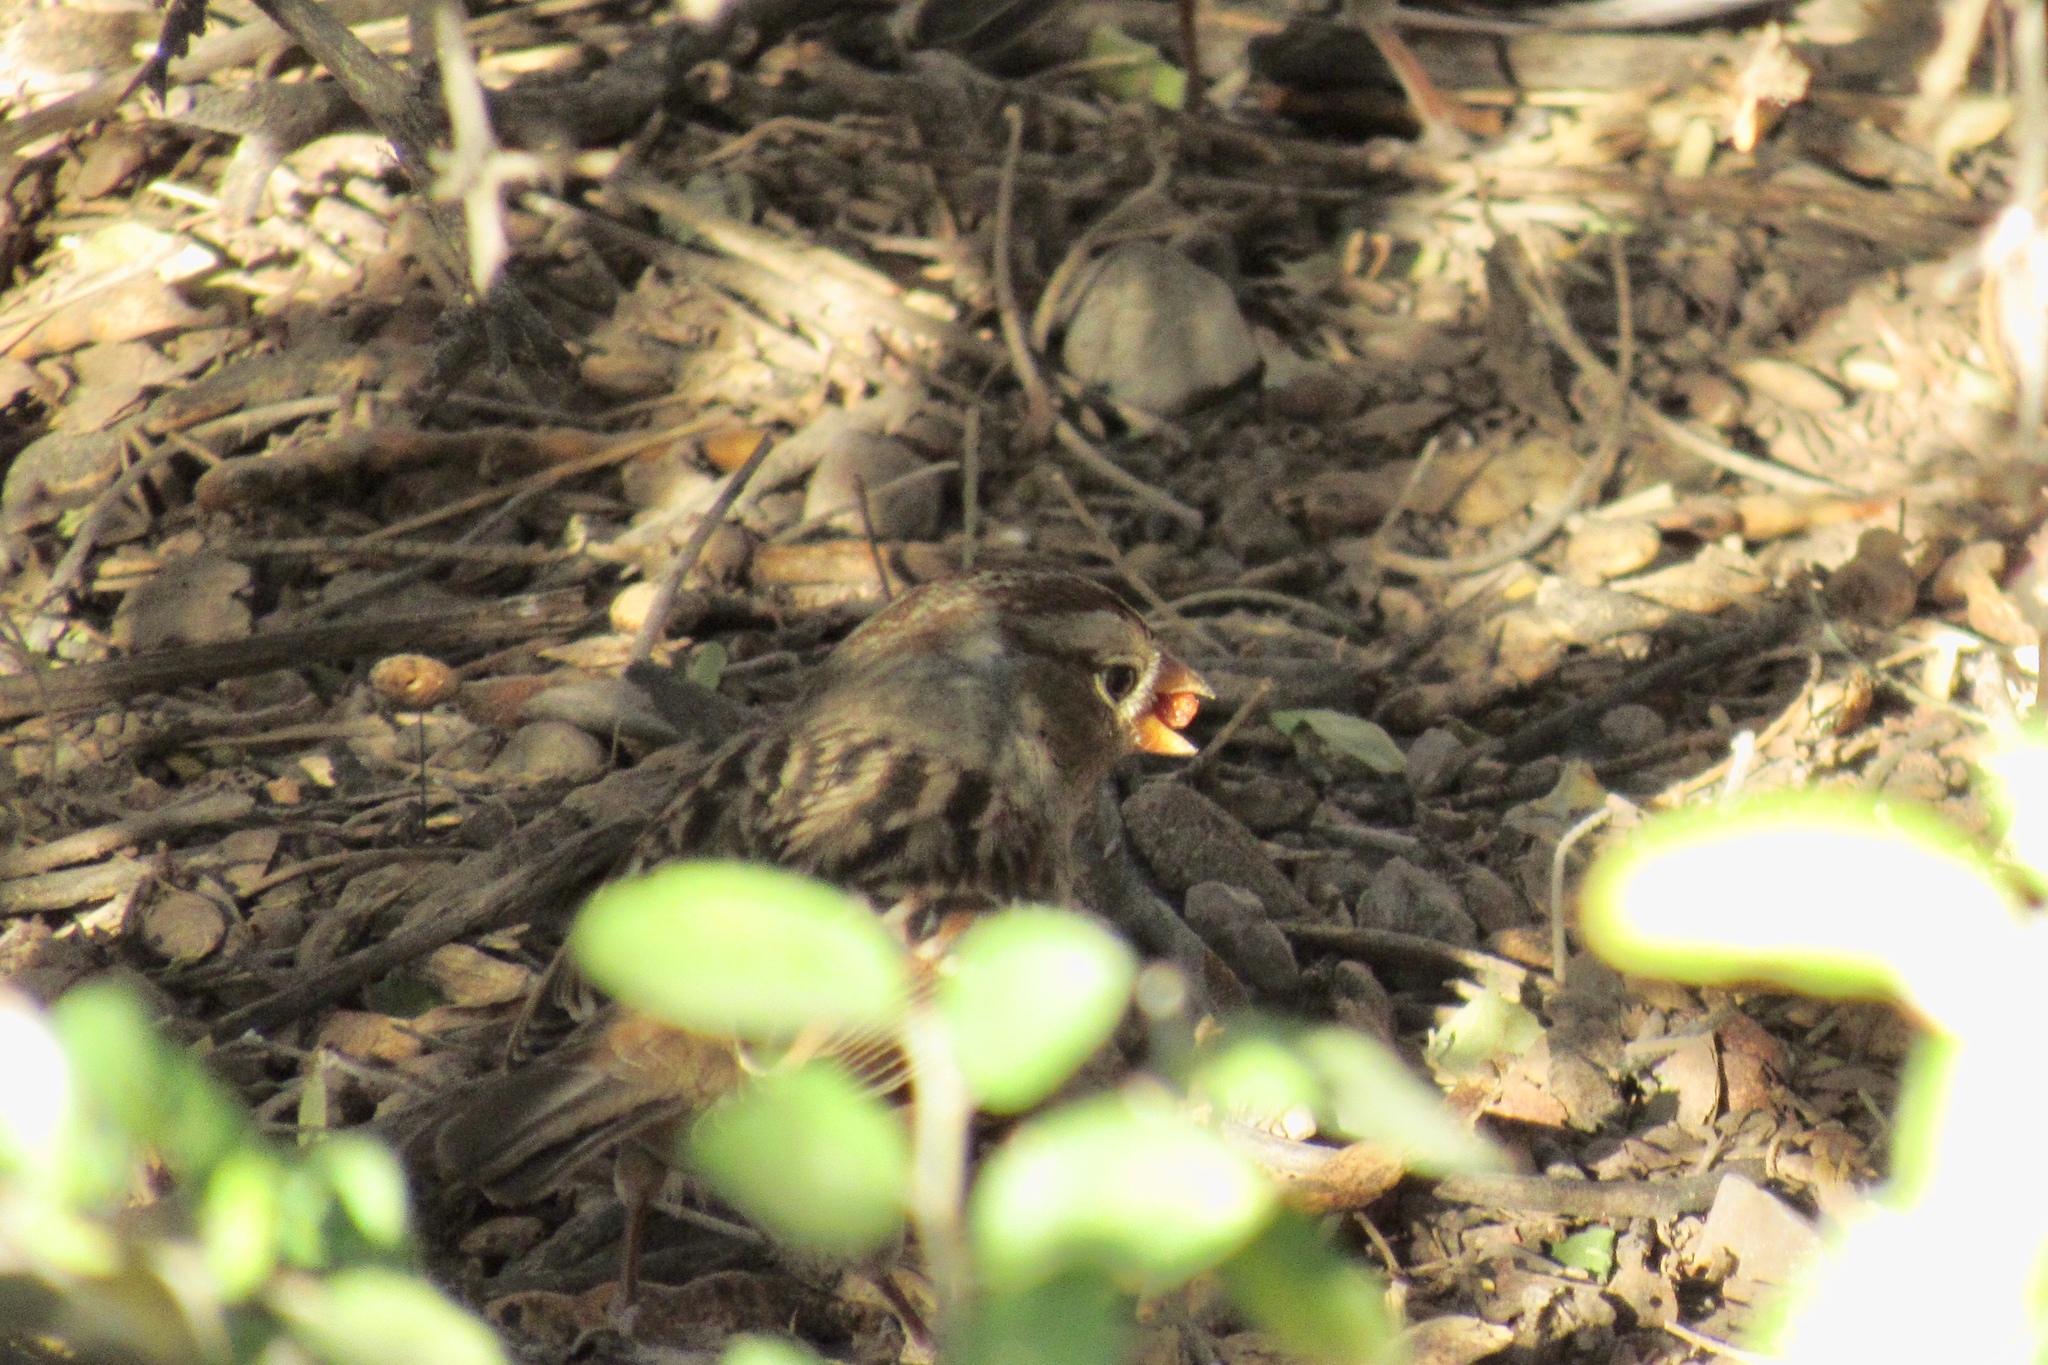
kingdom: Animalia
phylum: Chordata
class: Aves
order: Passeriformes
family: Passerellidae
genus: Zonotrichia
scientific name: Zonotrichia leucophrys
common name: White-crowned sparrow
